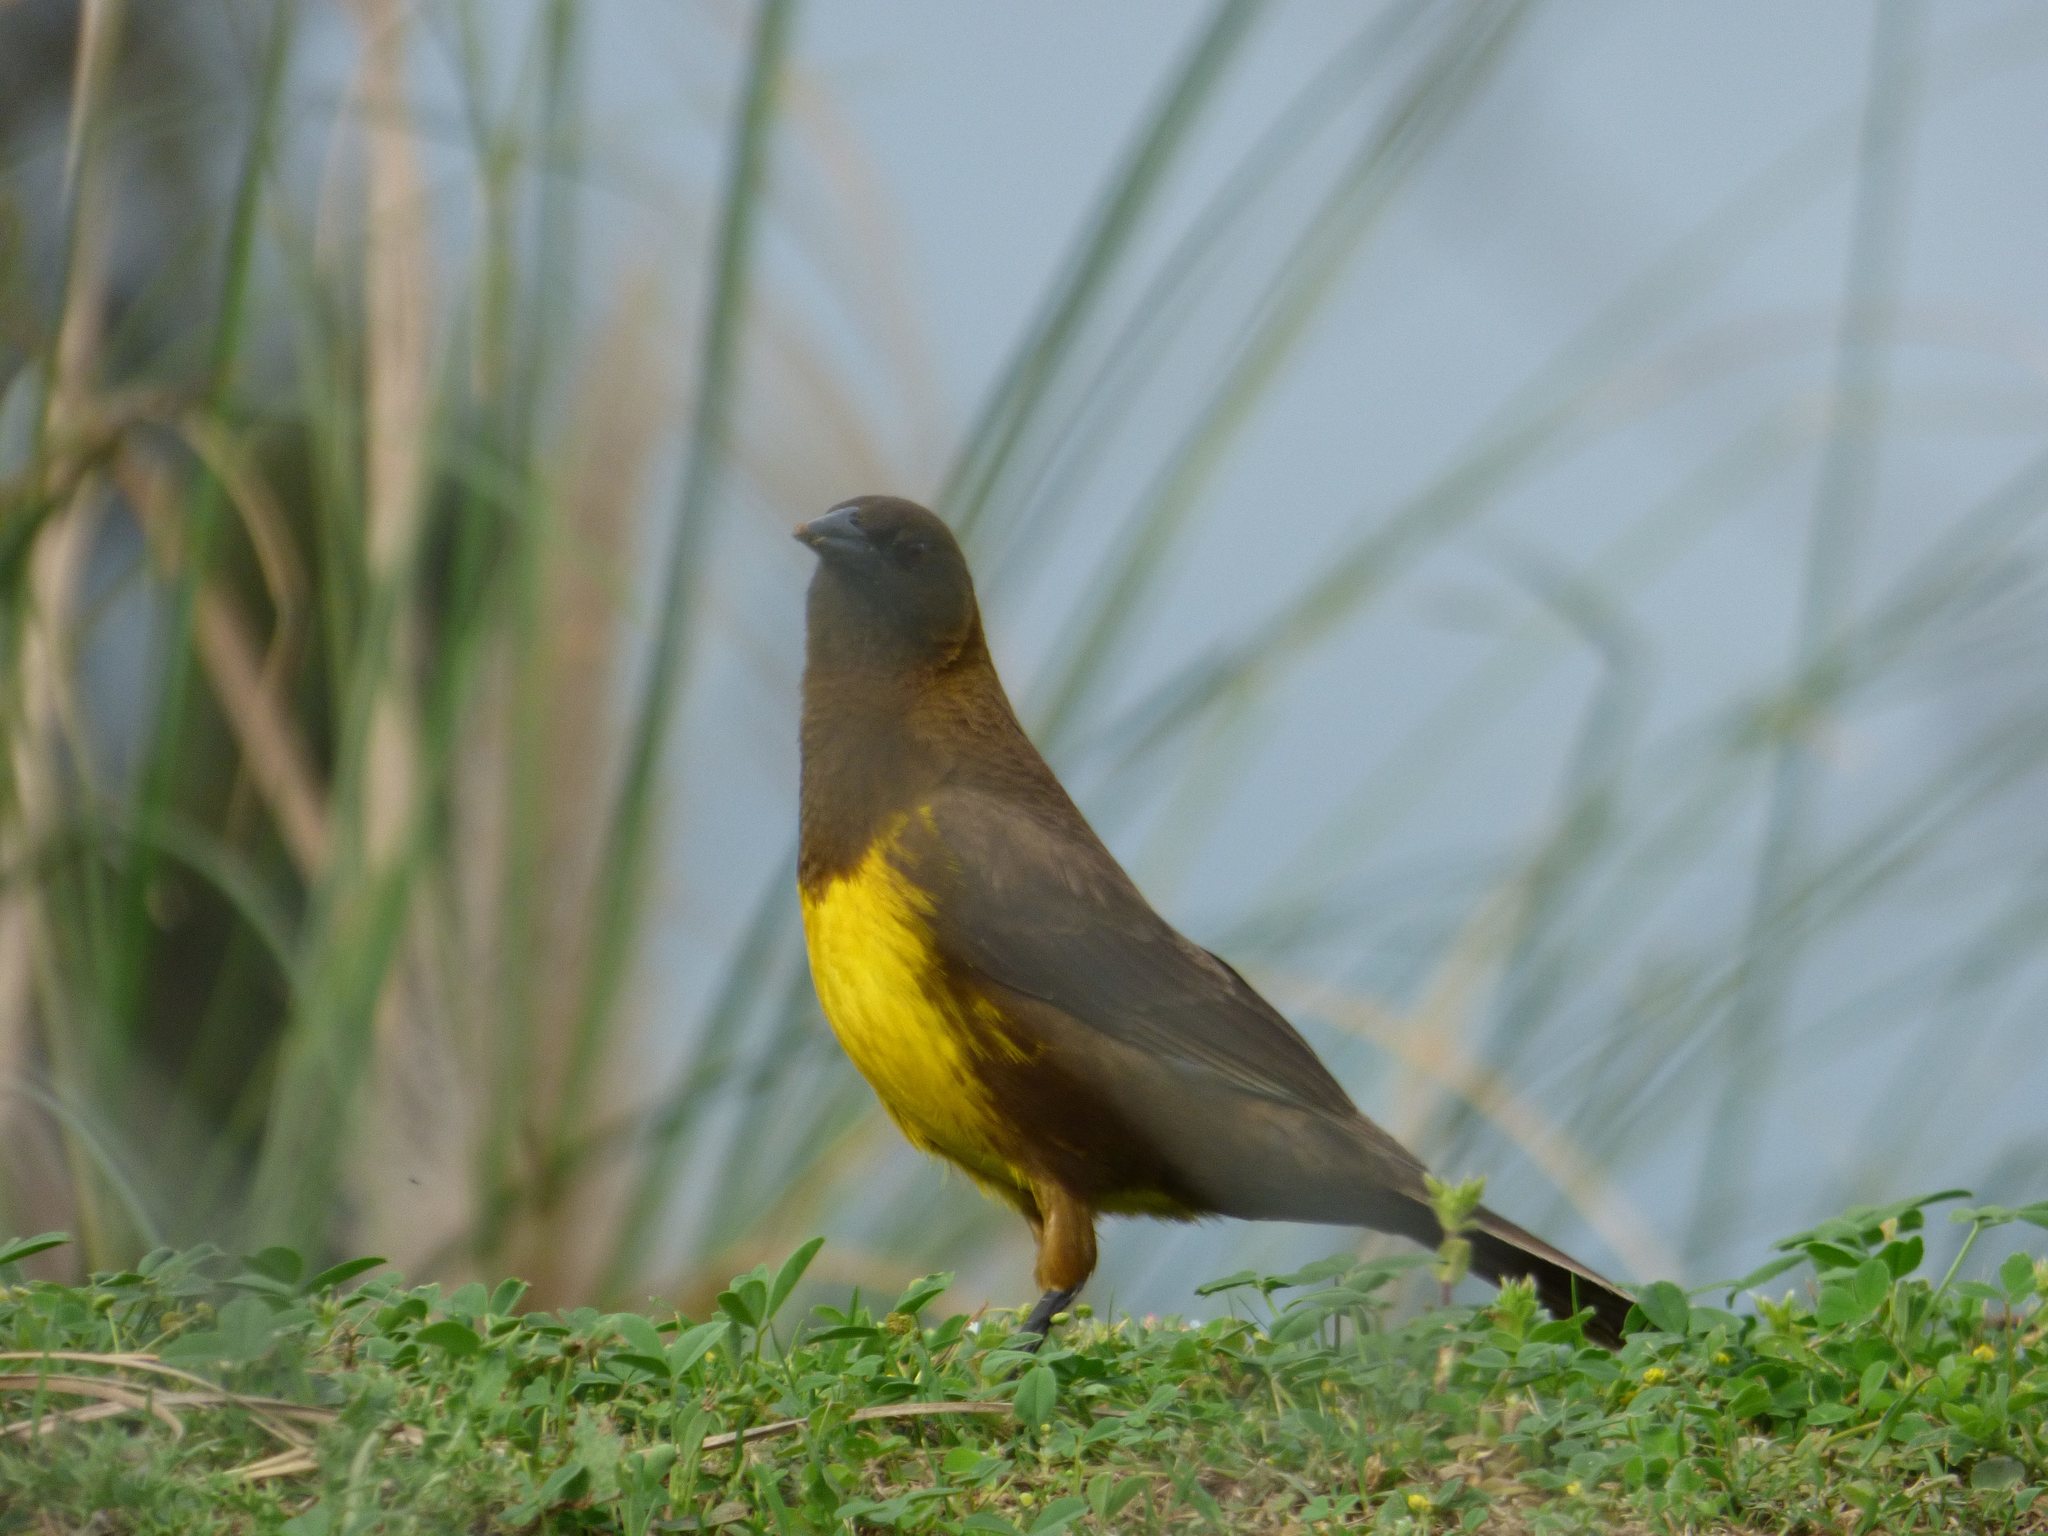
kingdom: Animalia
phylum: Chordata
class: Aves
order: Passeriformes
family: Icteridae
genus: Pseudoleistes
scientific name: Pseudoleistes virescens
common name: Brown-and-yellow marshbird
